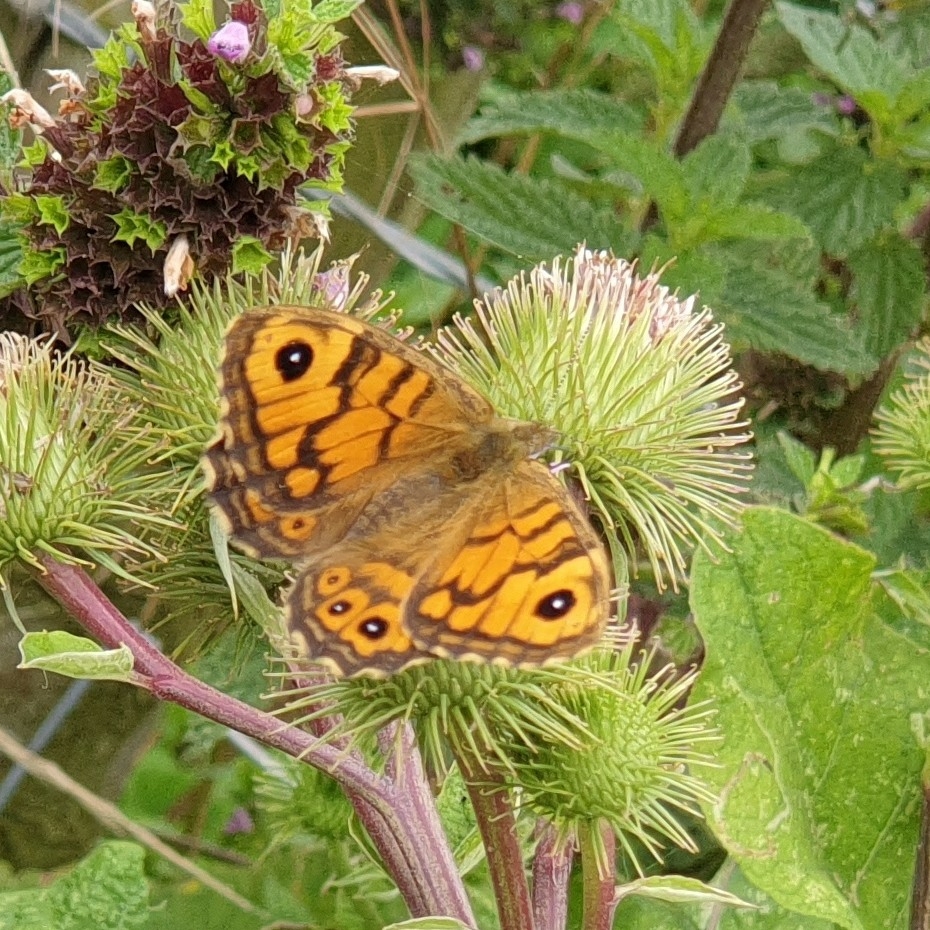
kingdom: Animalia
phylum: Arthropoda
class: Insecta
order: Lepidoptera
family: Nymphalidae
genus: Pararge
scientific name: Pararge Lasiommata megera
